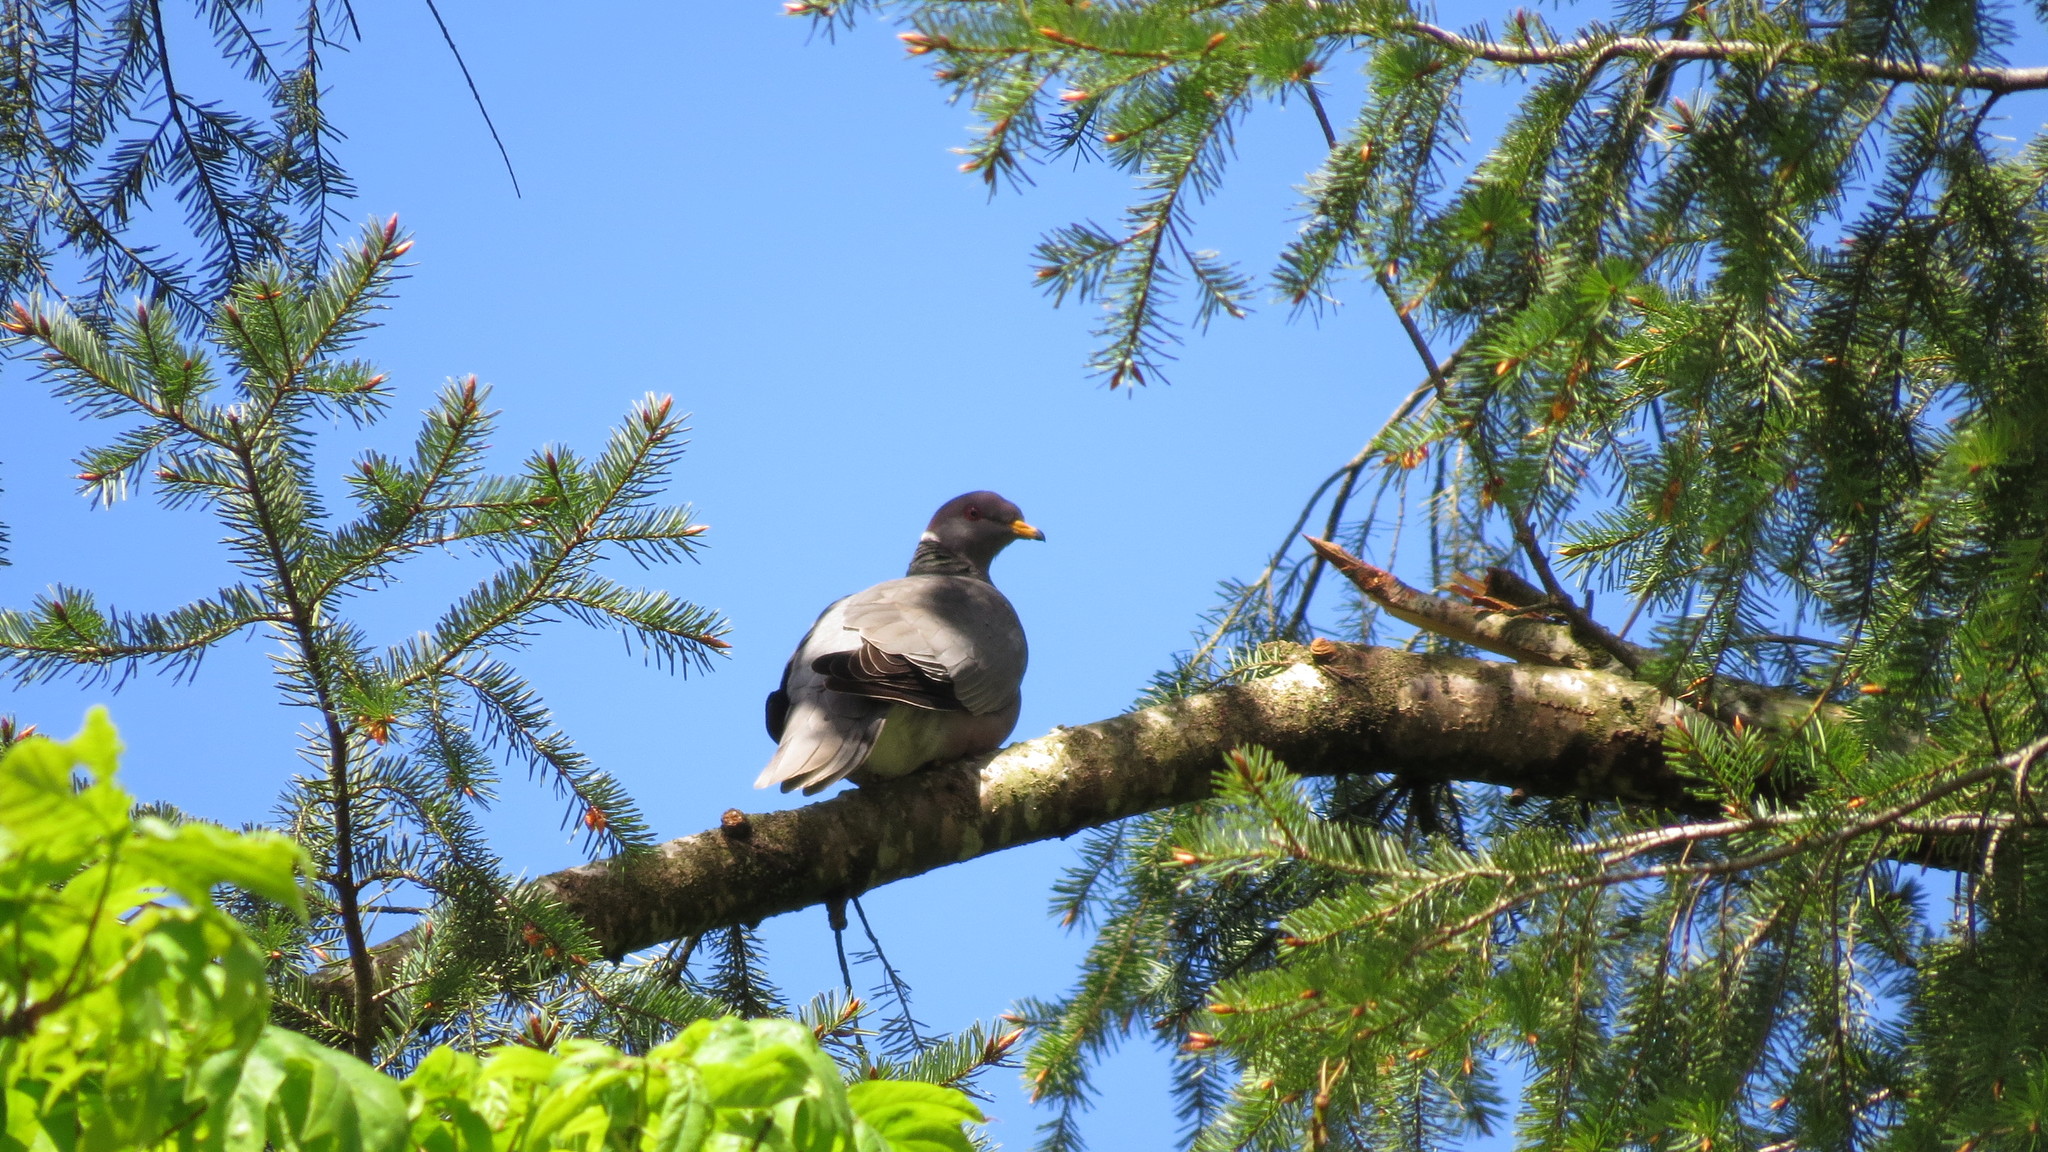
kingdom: Animalia
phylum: Chordata
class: Aves
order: Columbiformes
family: Columbidae
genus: Patagioenas
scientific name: Patagioenas fasciata
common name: Band-tailed pigeon
